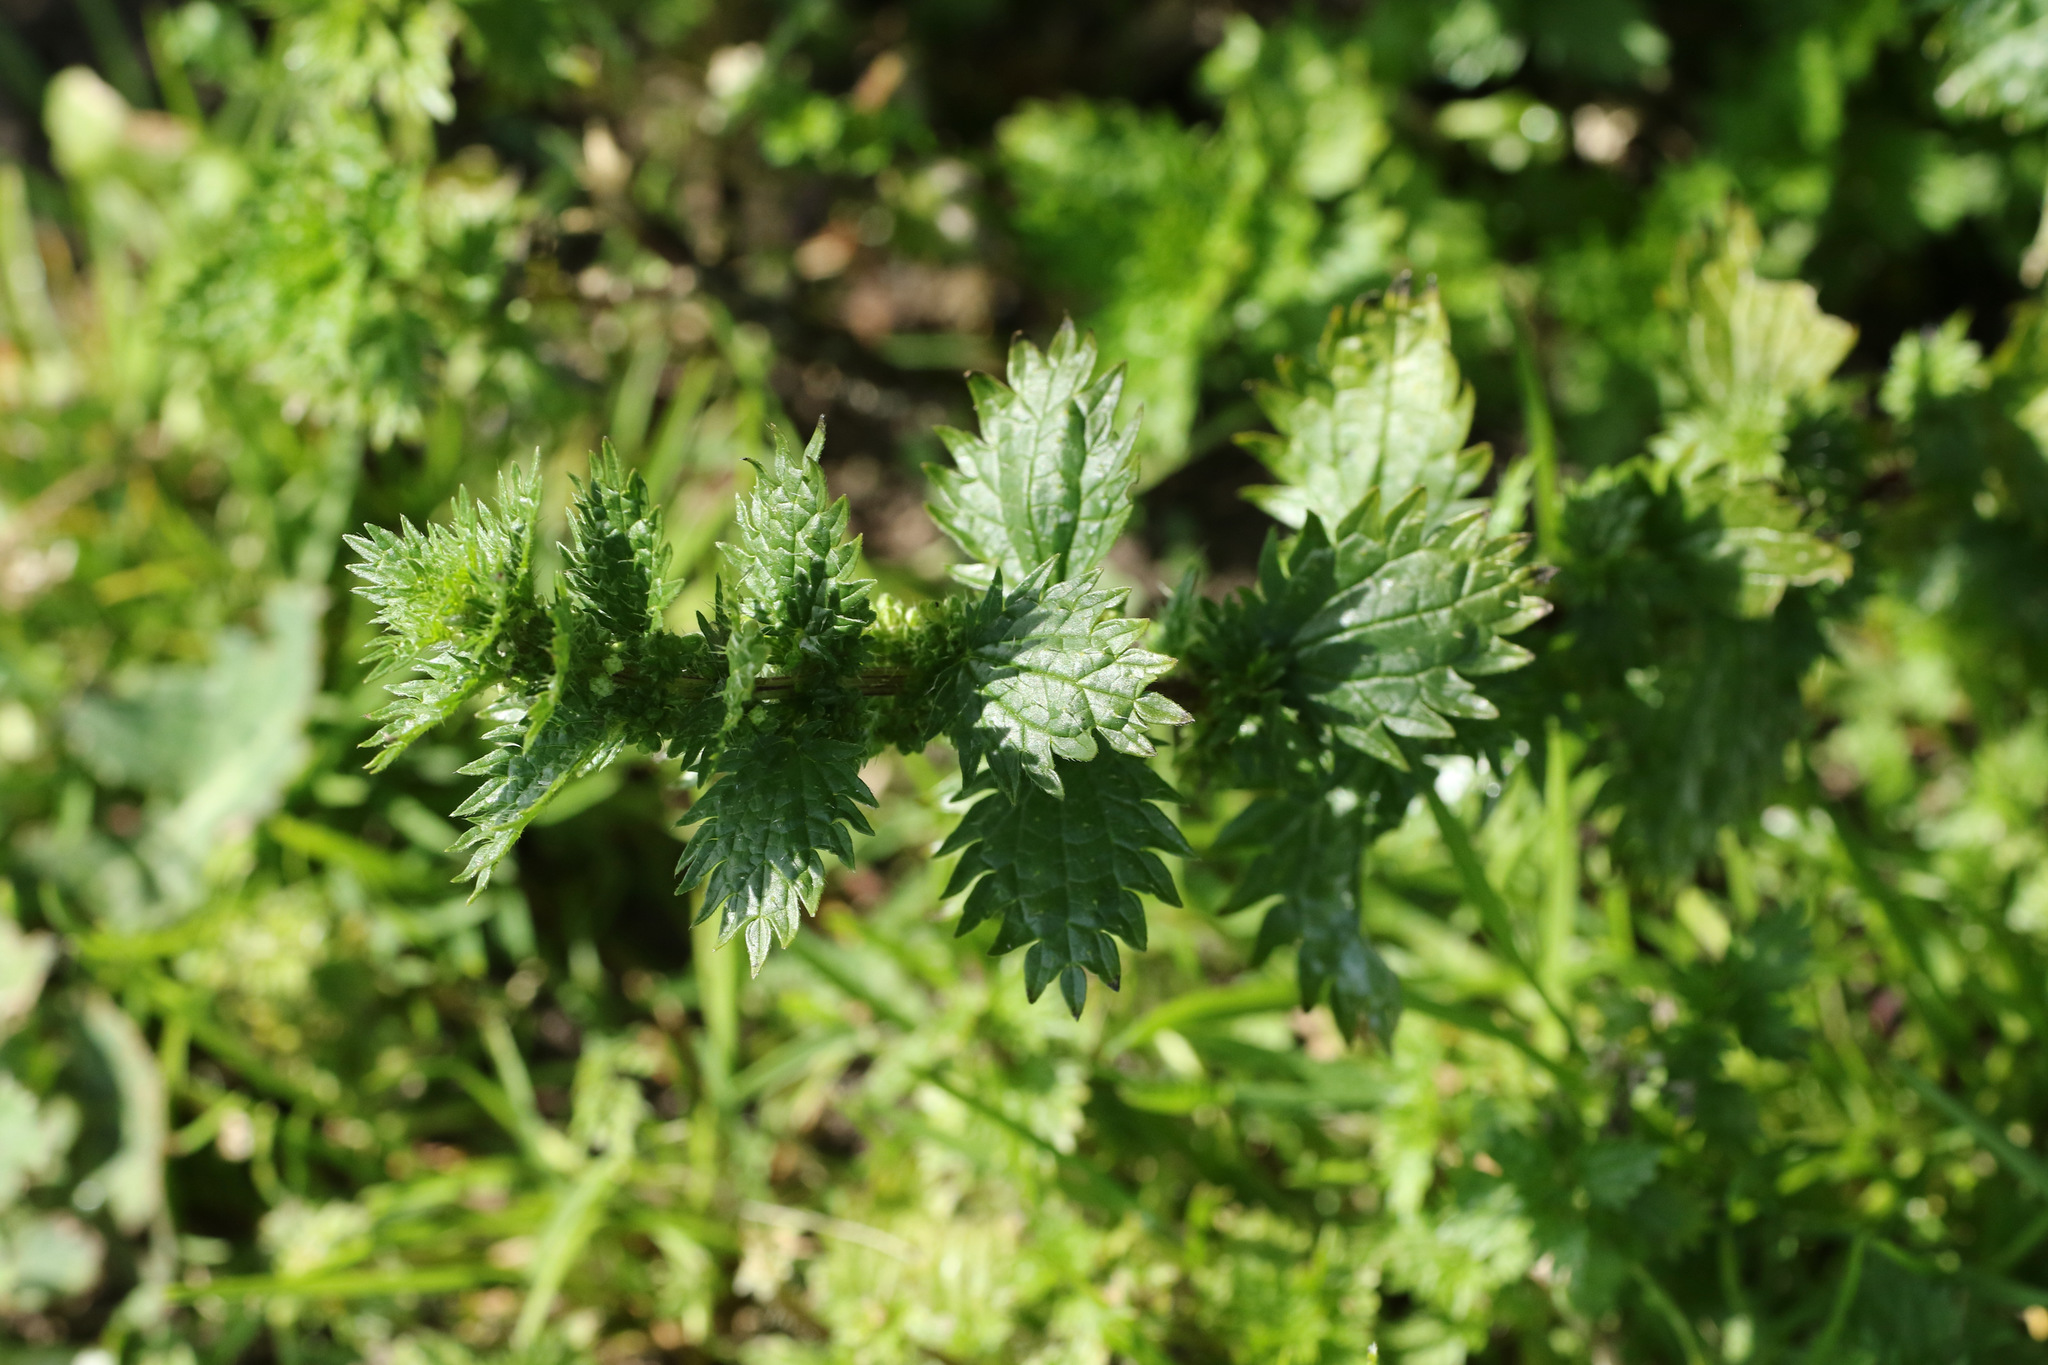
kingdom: Plantae
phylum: Tracheophyta
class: Magnoliopsida
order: Rosales
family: Urticaceae
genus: Urtica
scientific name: Urtica urens
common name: Dwarf nettle
